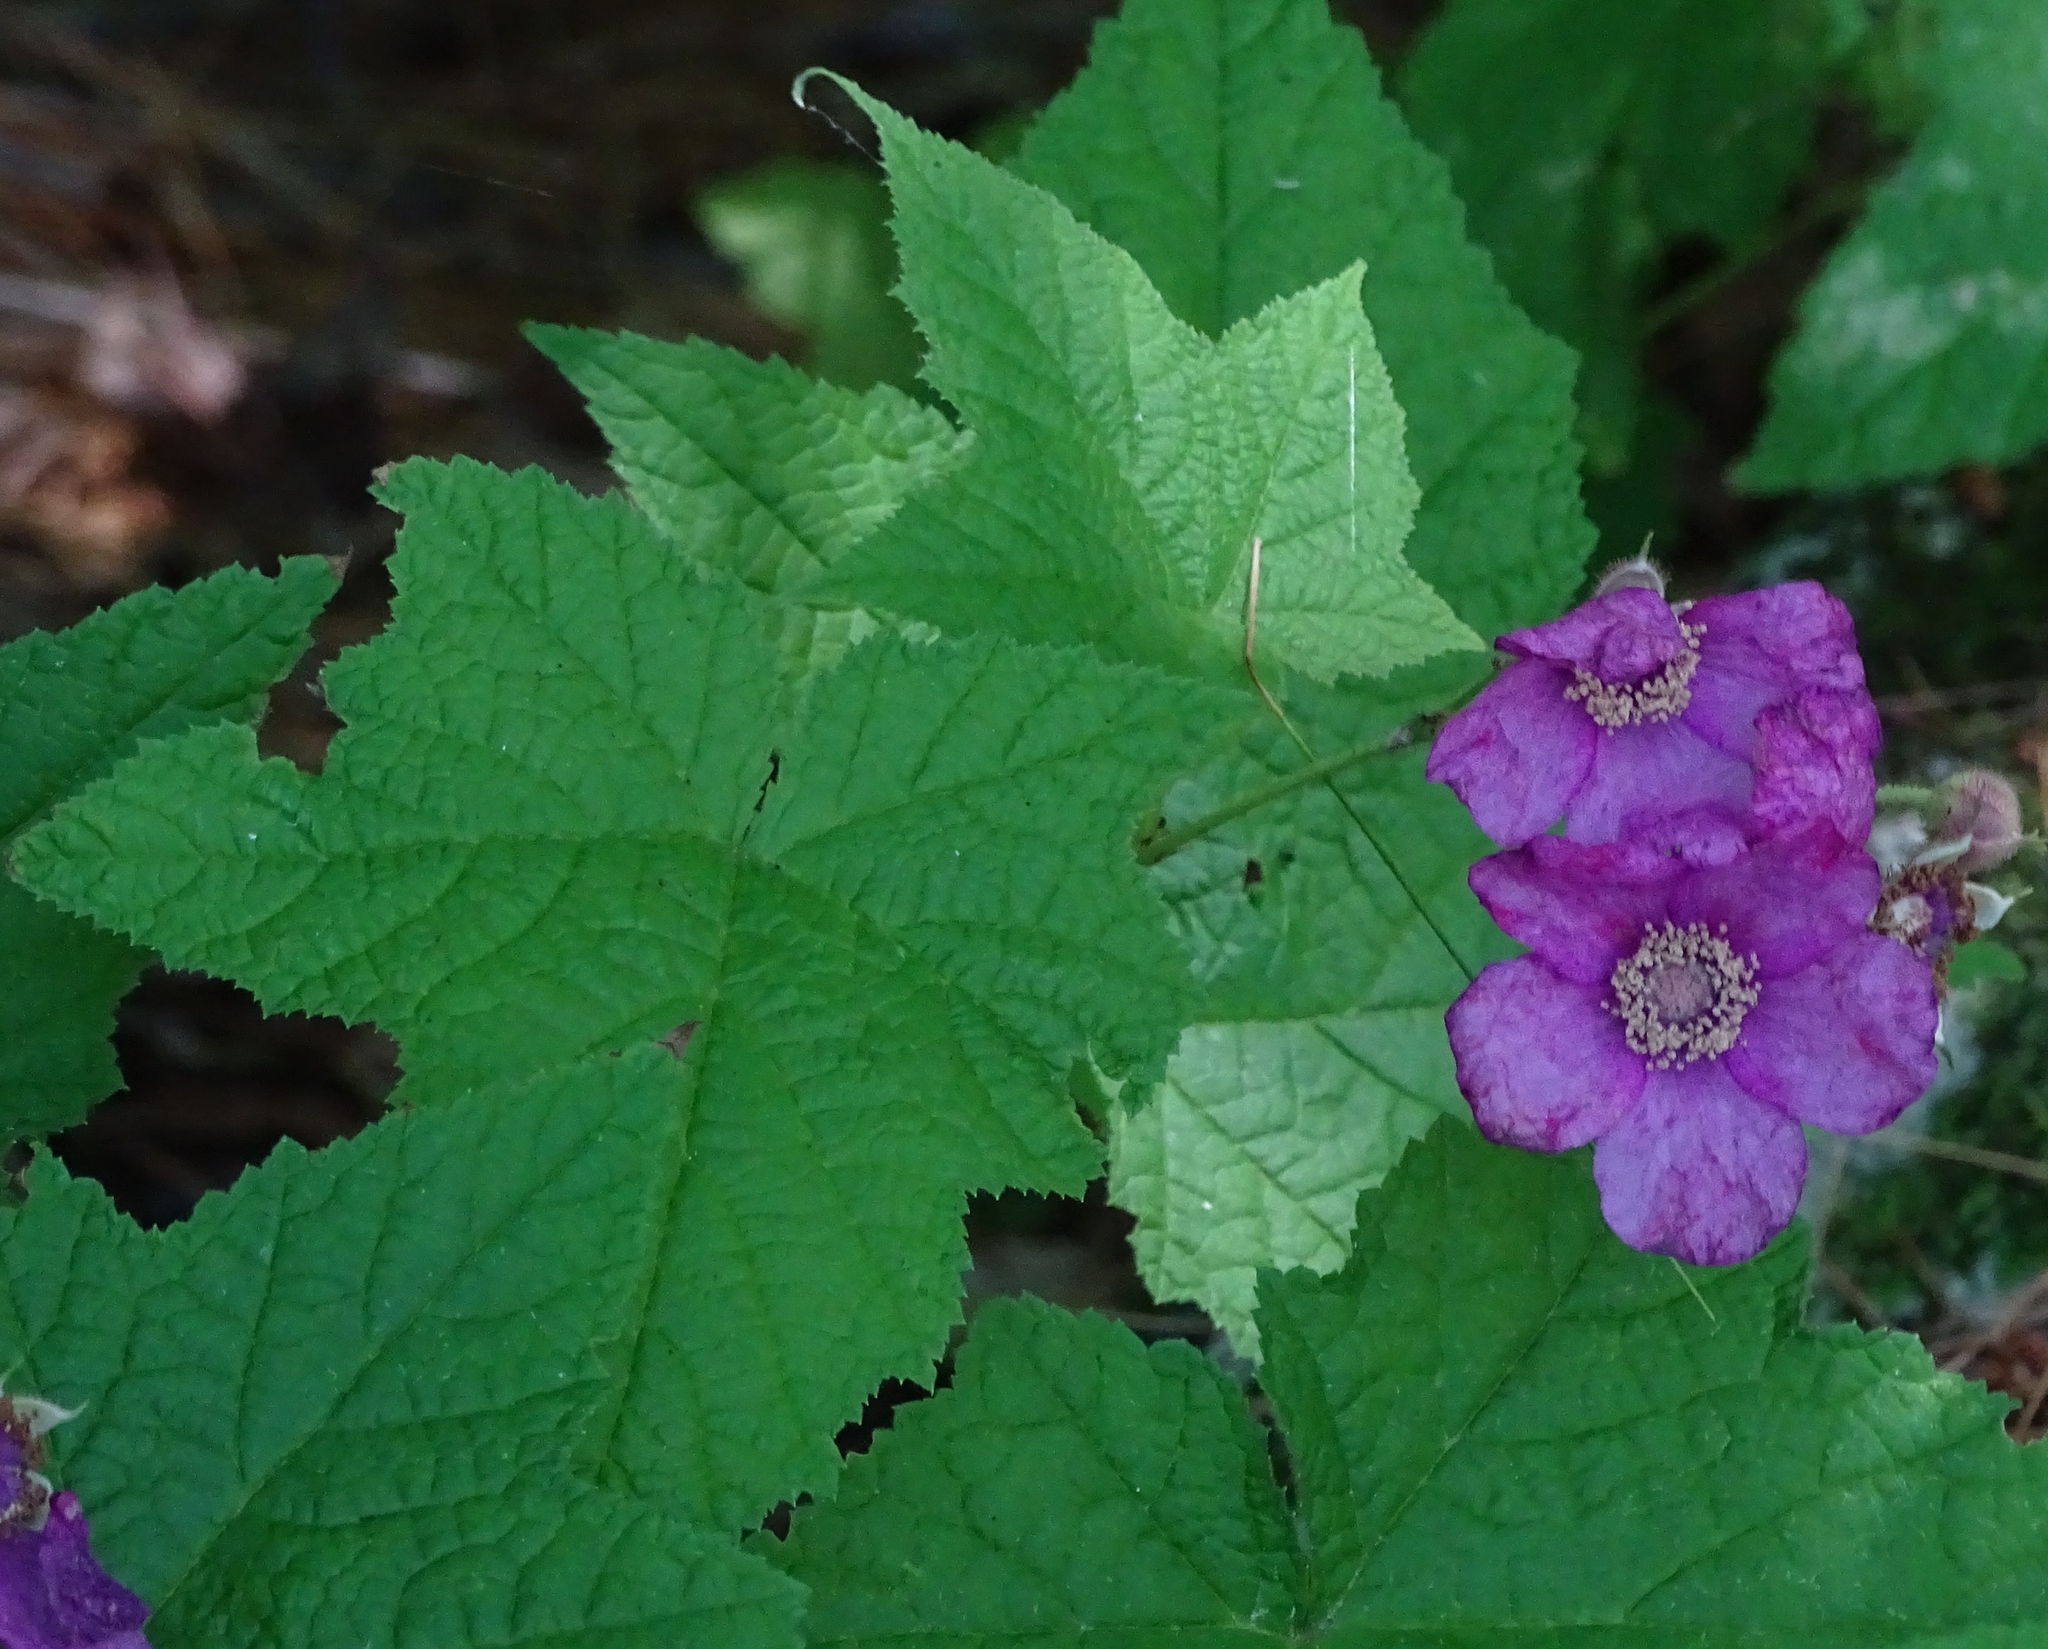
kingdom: Plantae
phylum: Tracheophyta
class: Magnoliopsida
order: Rosales
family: Rosaceae
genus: Rubus
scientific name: Rubus odoratus
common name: Purple-flowered raspberry
